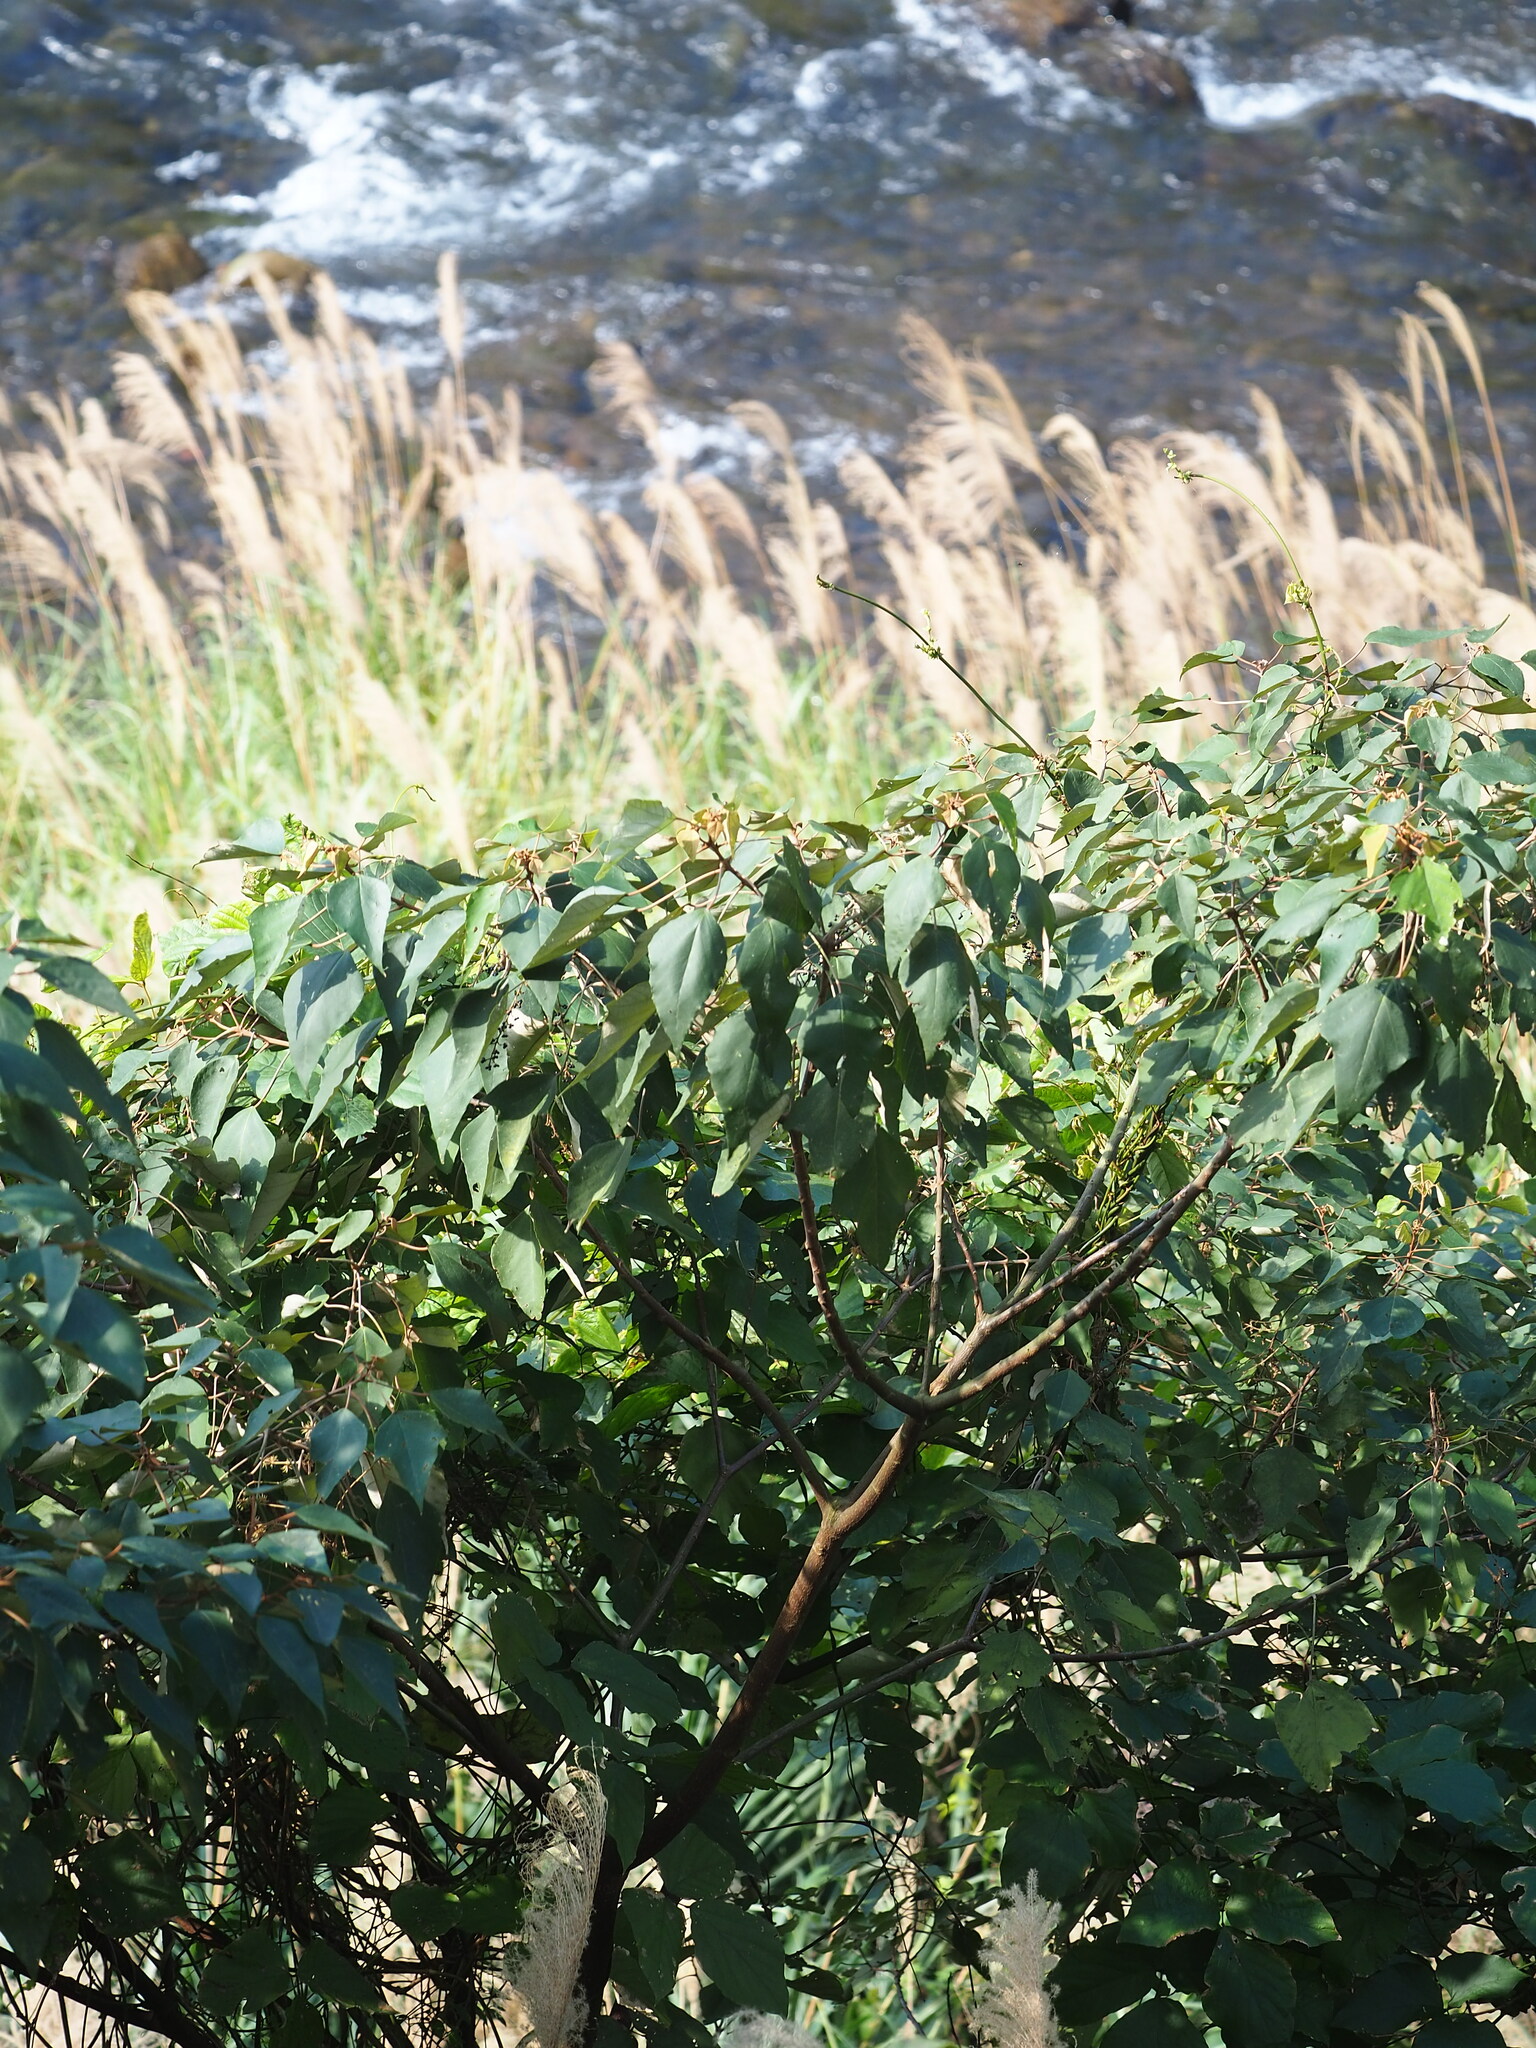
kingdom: Plantae
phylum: Tracheophyta
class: Magnoliopsida
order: Malpighiales
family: Euphorbiaceae
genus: Mallotus
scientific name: Mallotus paniculatus
